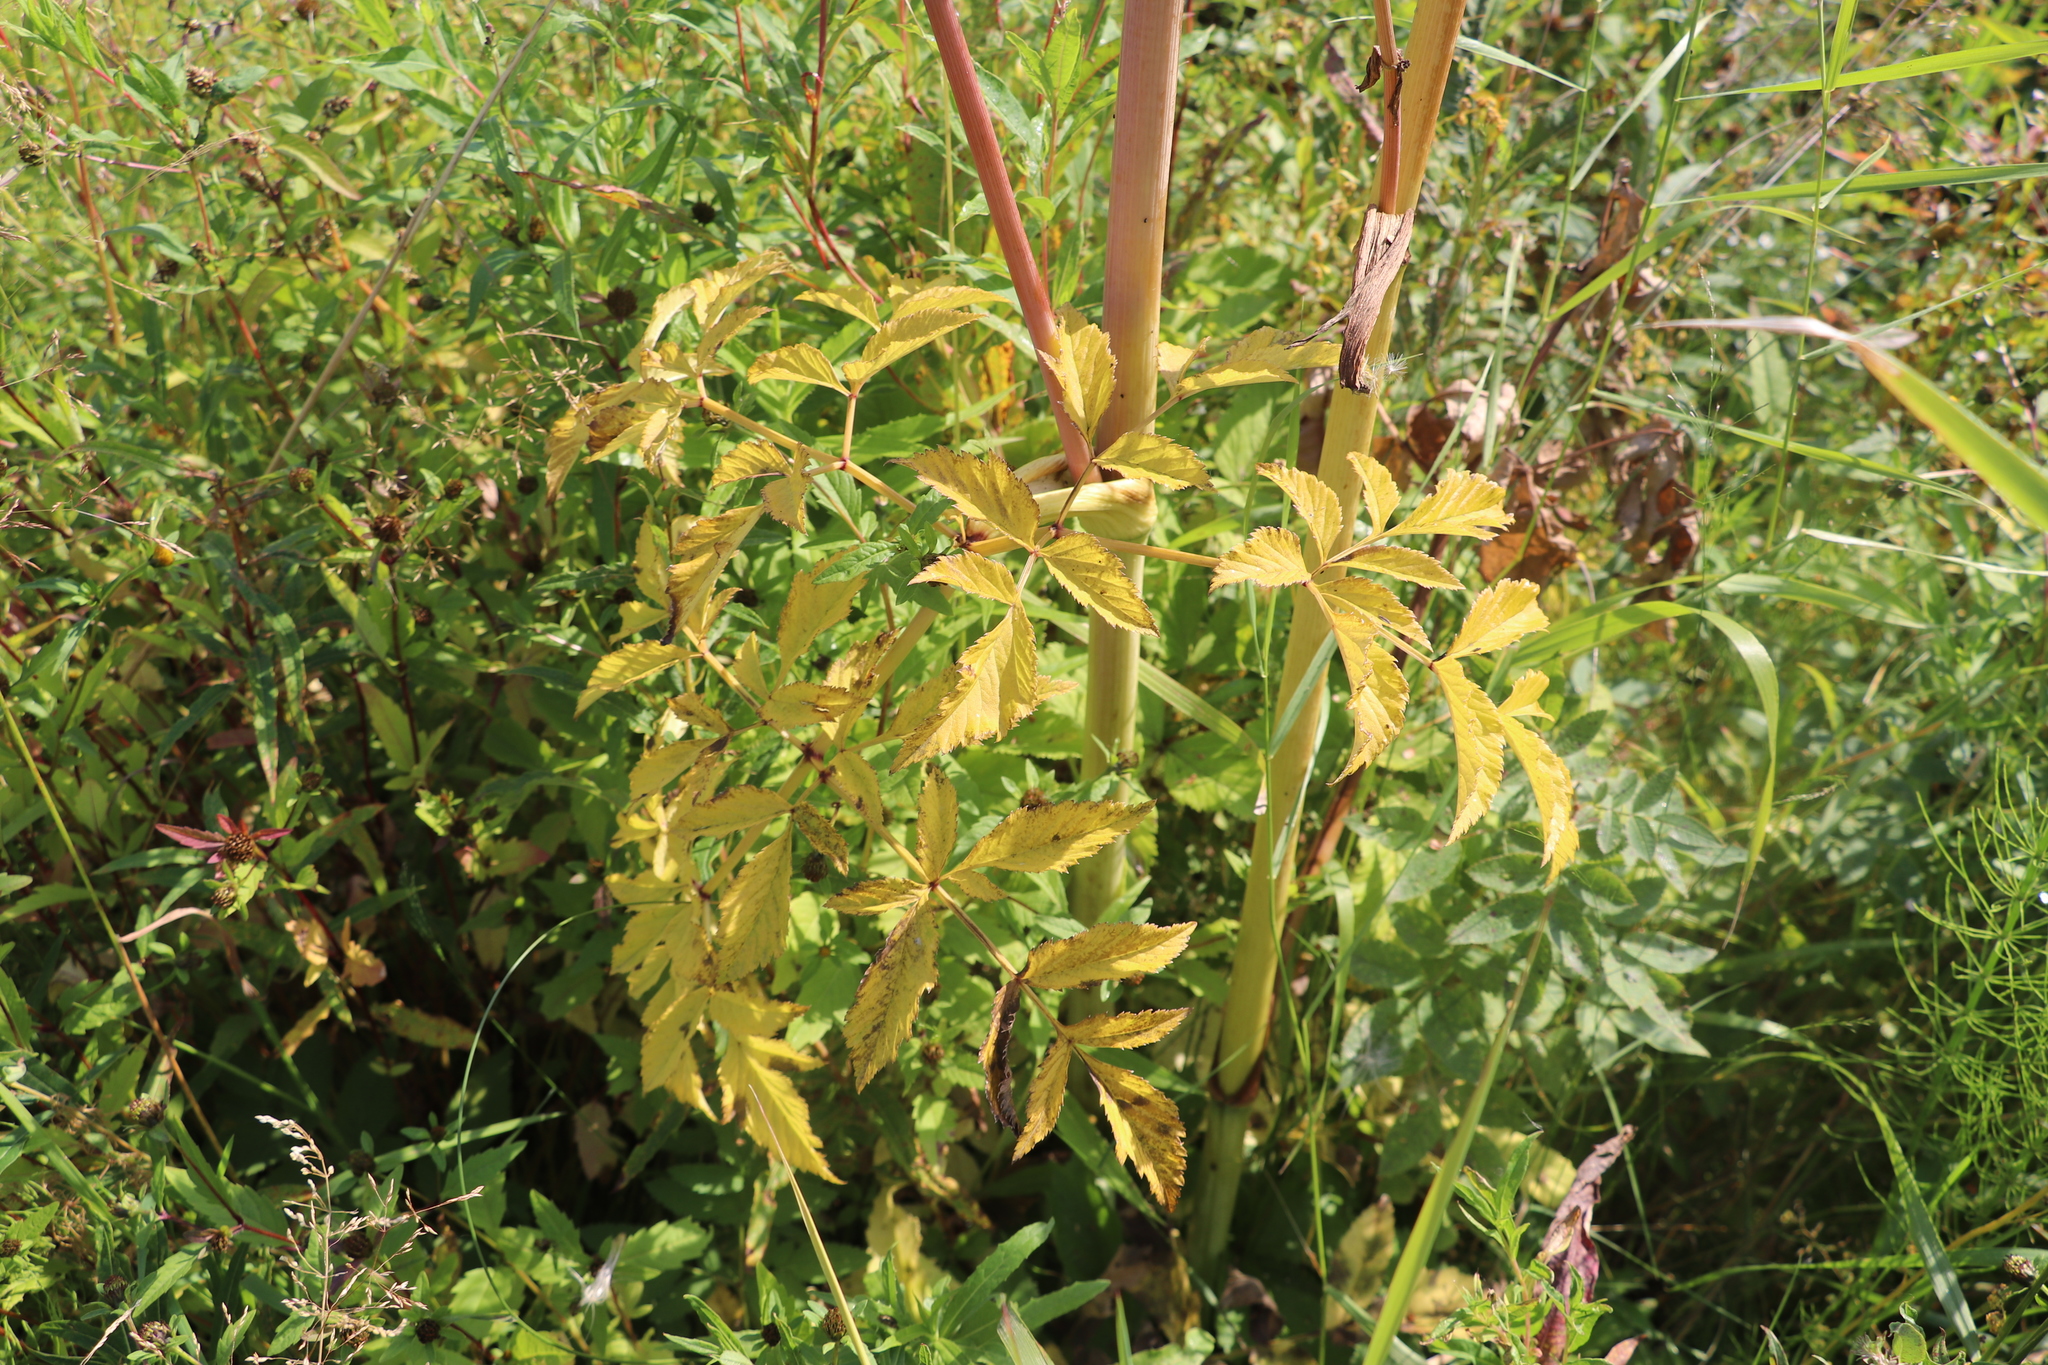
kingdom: Plantae
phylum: Tracheophyta
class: Magnoliopsida
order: Apiales
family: Apiaceae
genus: Angelica
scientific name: Angelica sylvestris
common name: Wild angelica
